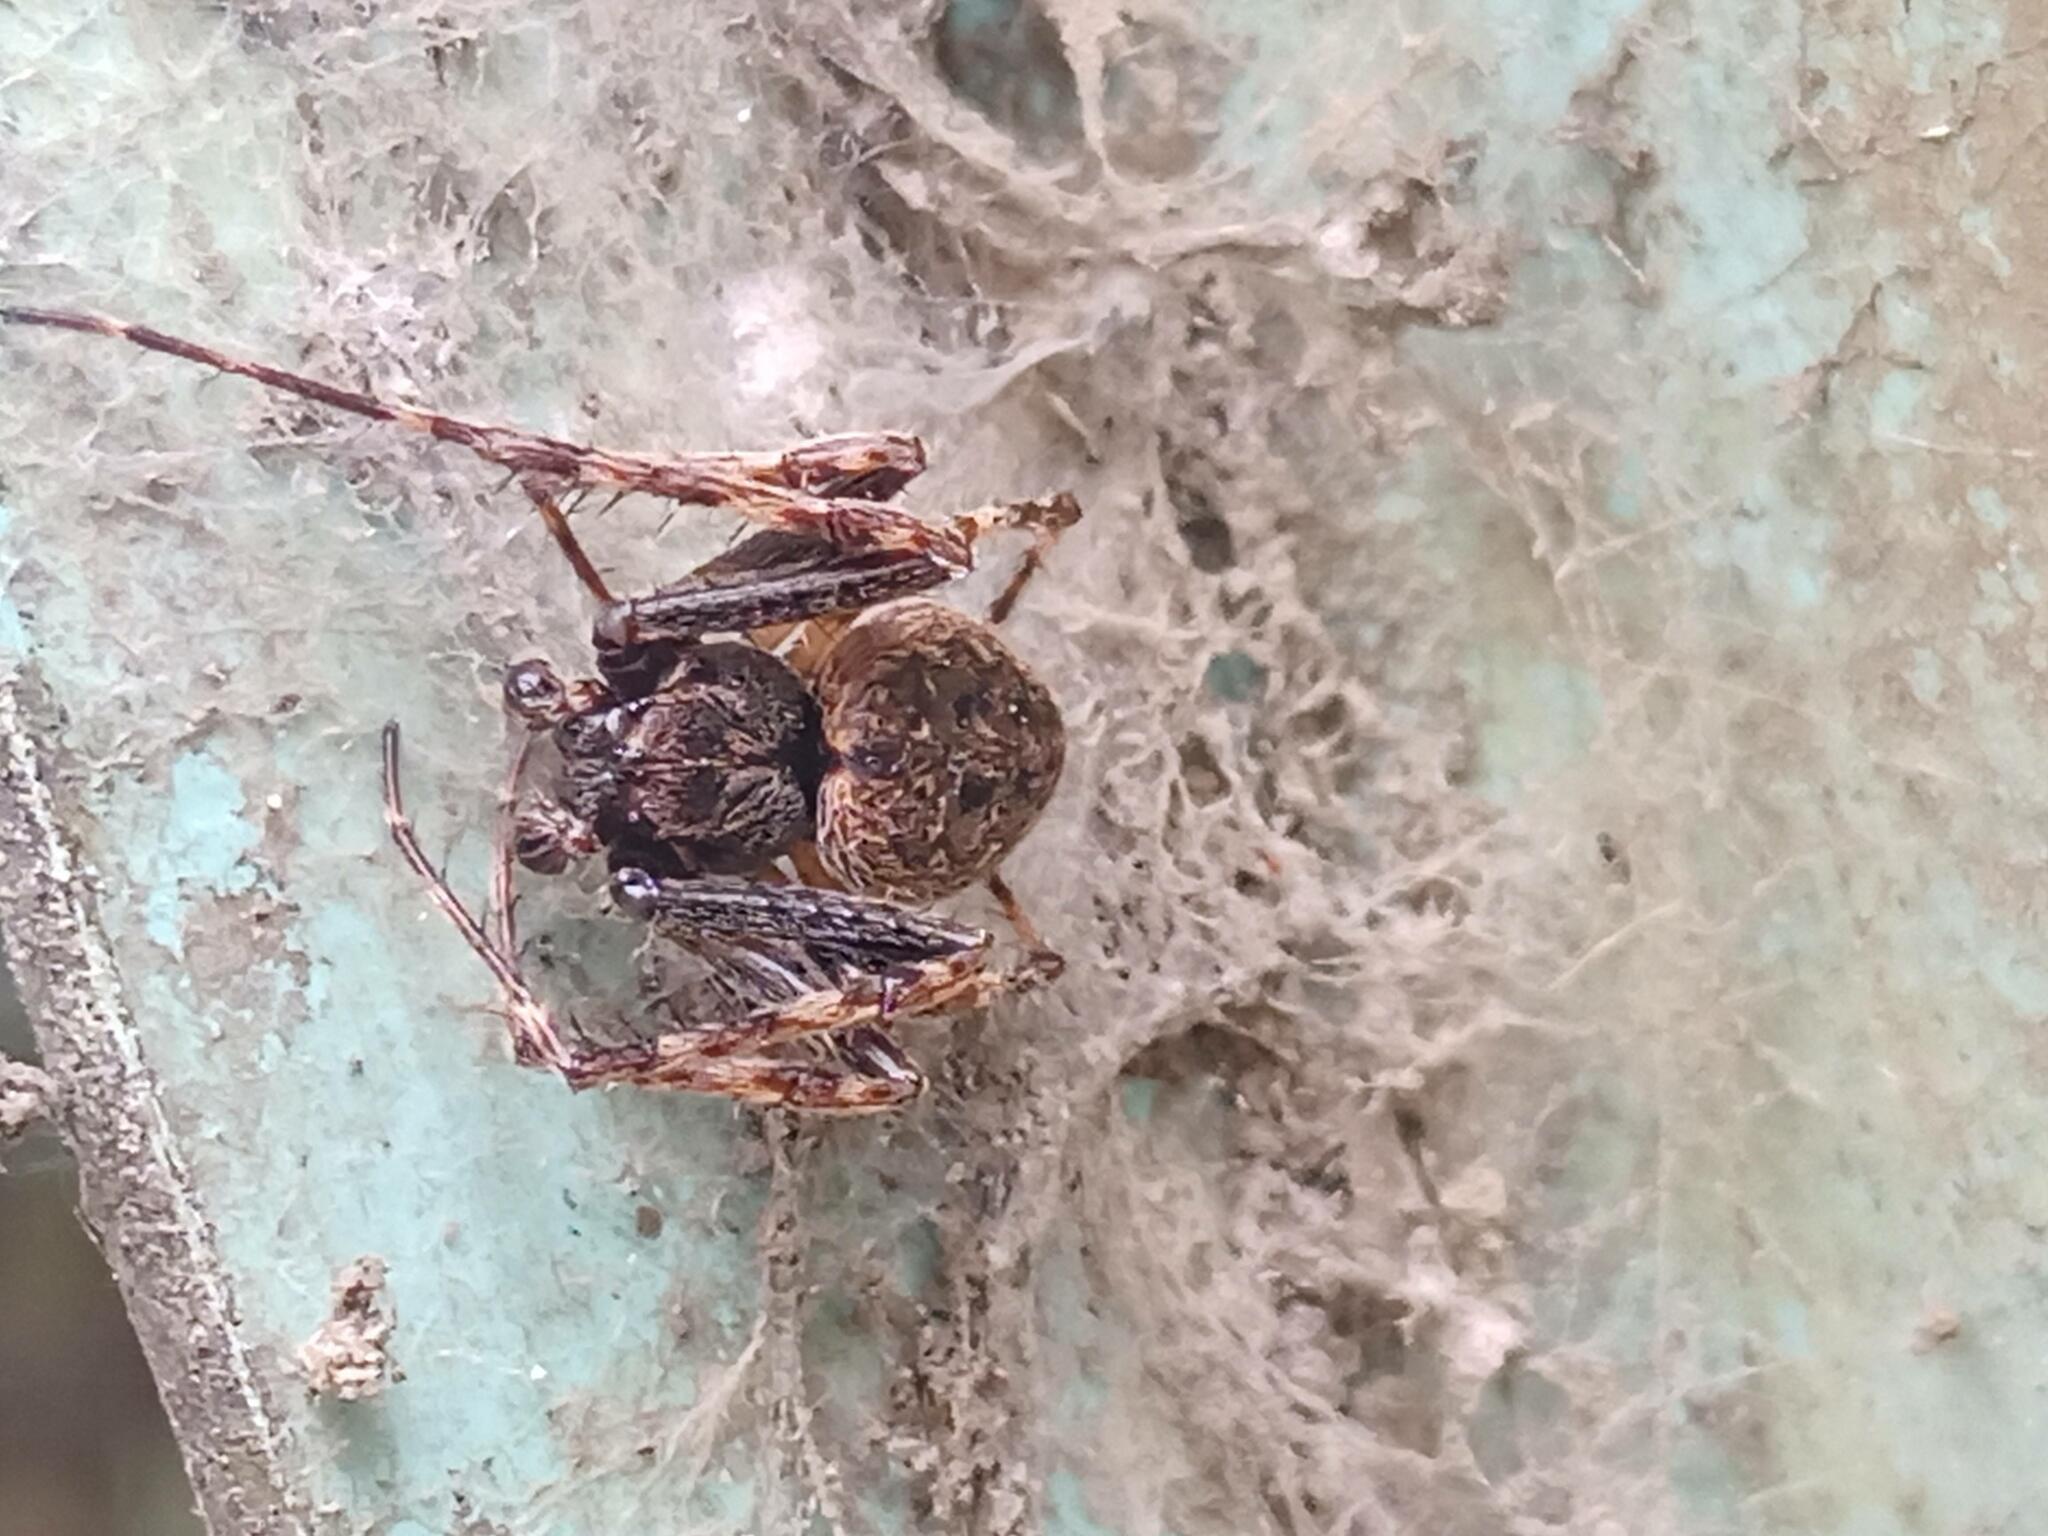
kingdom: Animalia
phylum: Arthropoda
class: Arachnida
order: Araneae
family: Araneidae
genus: Nuctenea
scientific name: Nuctenea umbratica
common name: Toad spider
